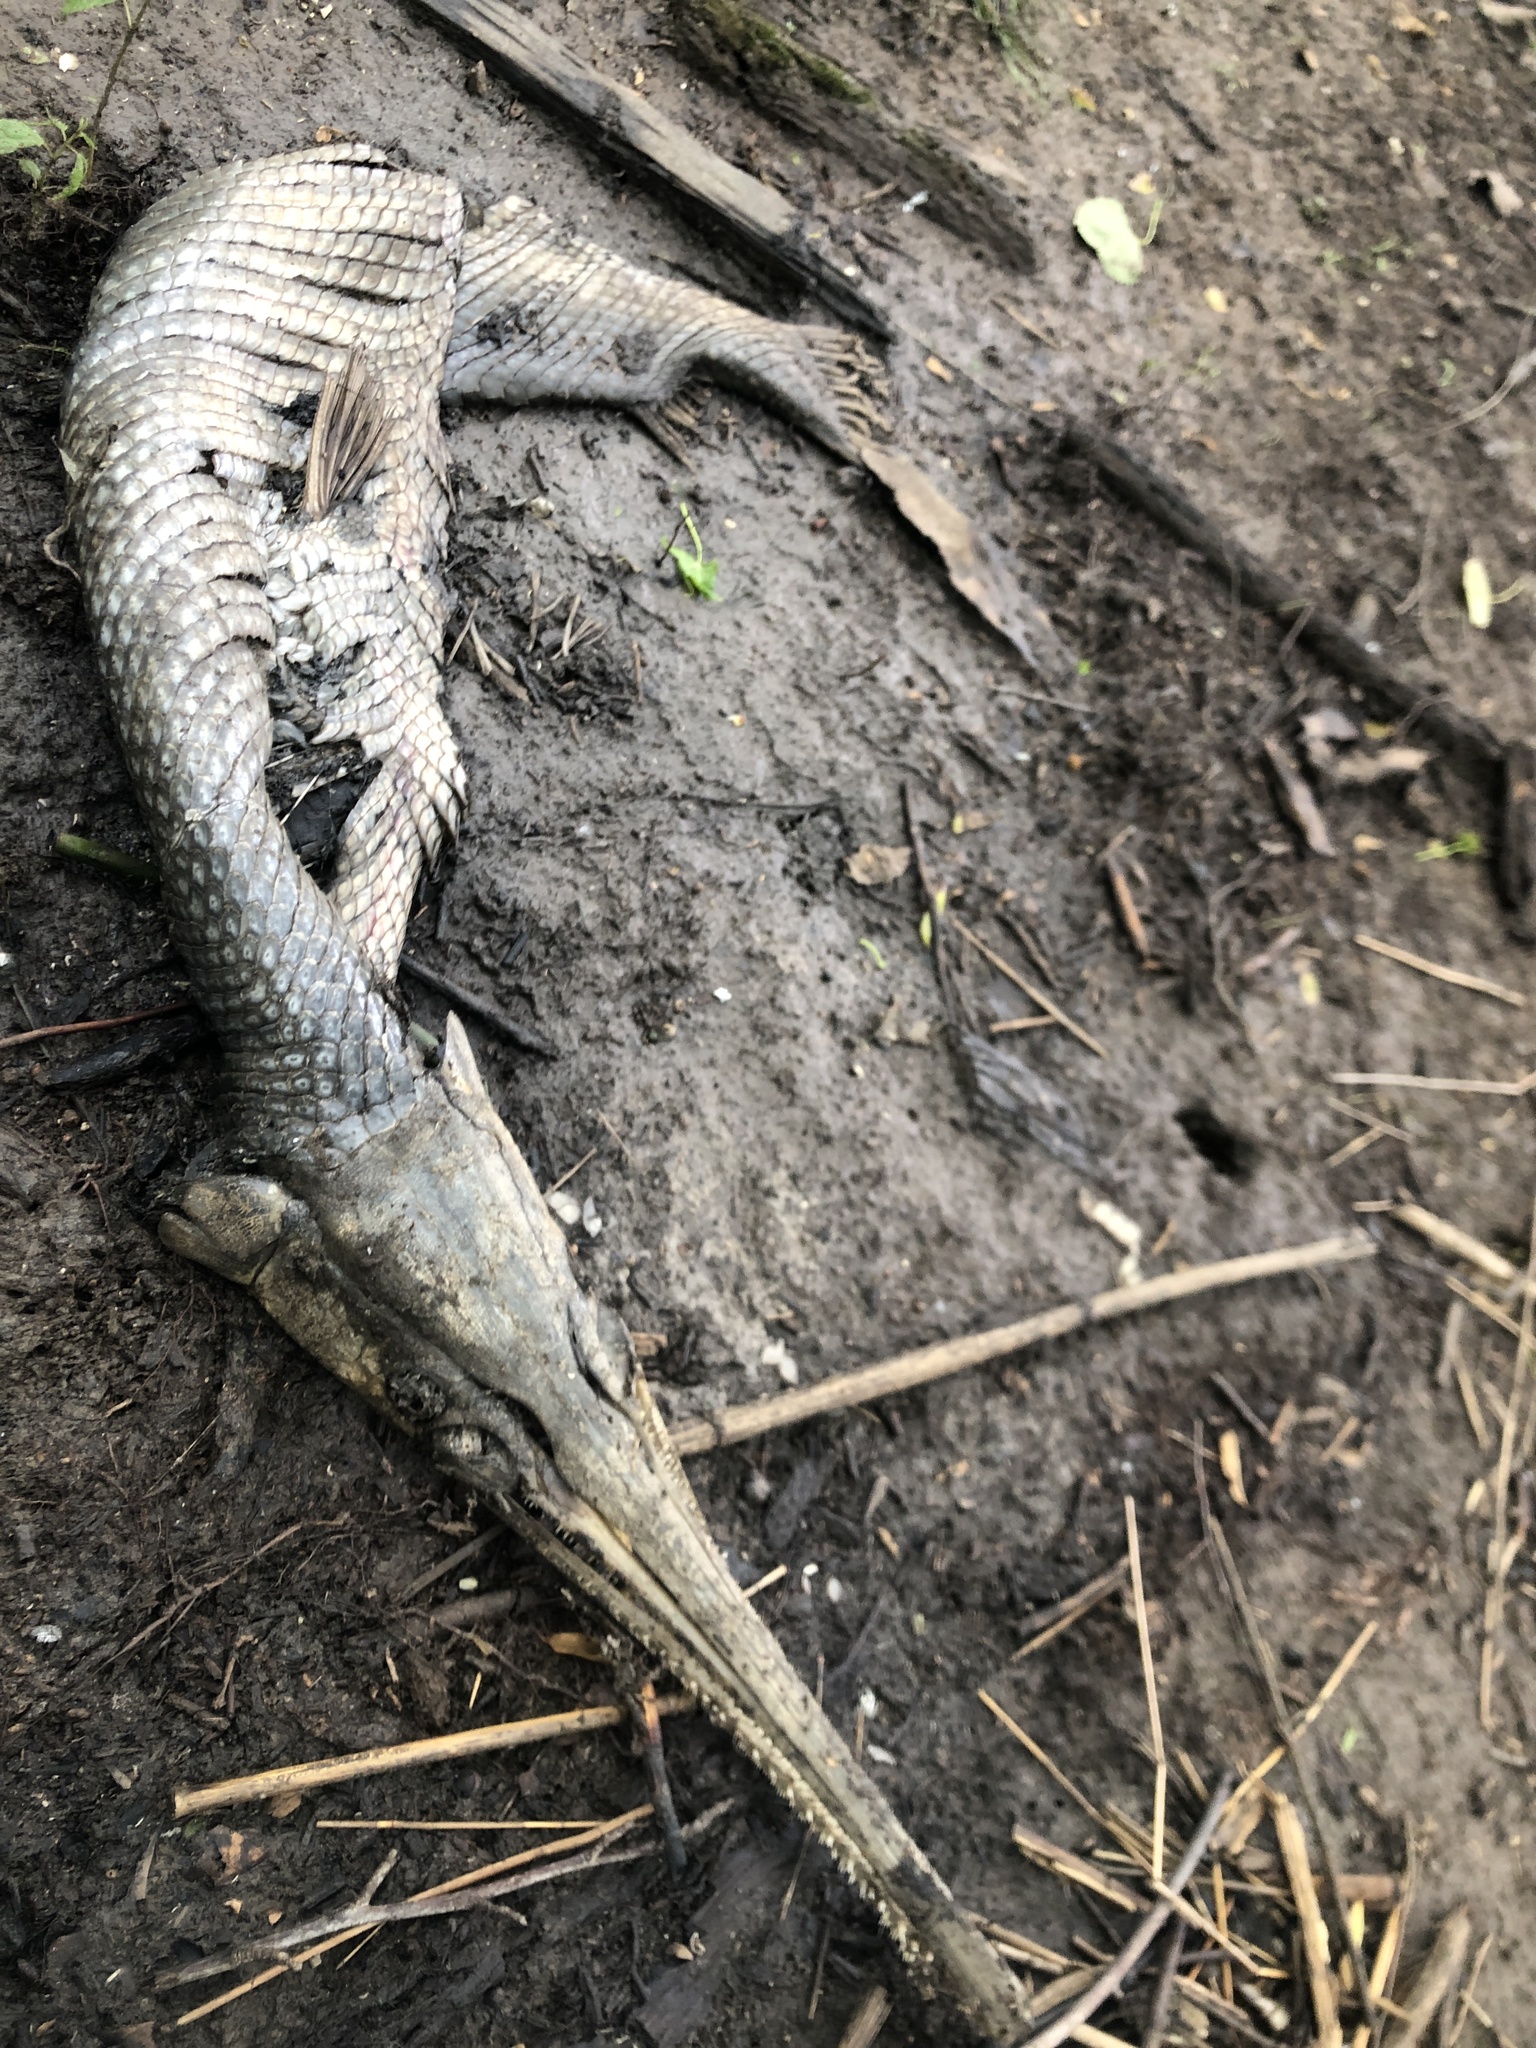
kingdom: Animalia
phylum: Chordata
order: Lepisosteiformes
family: Lepisosteidae
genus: Lepisosteus
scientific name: Lepisosteus osseus
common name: Longnose gar
